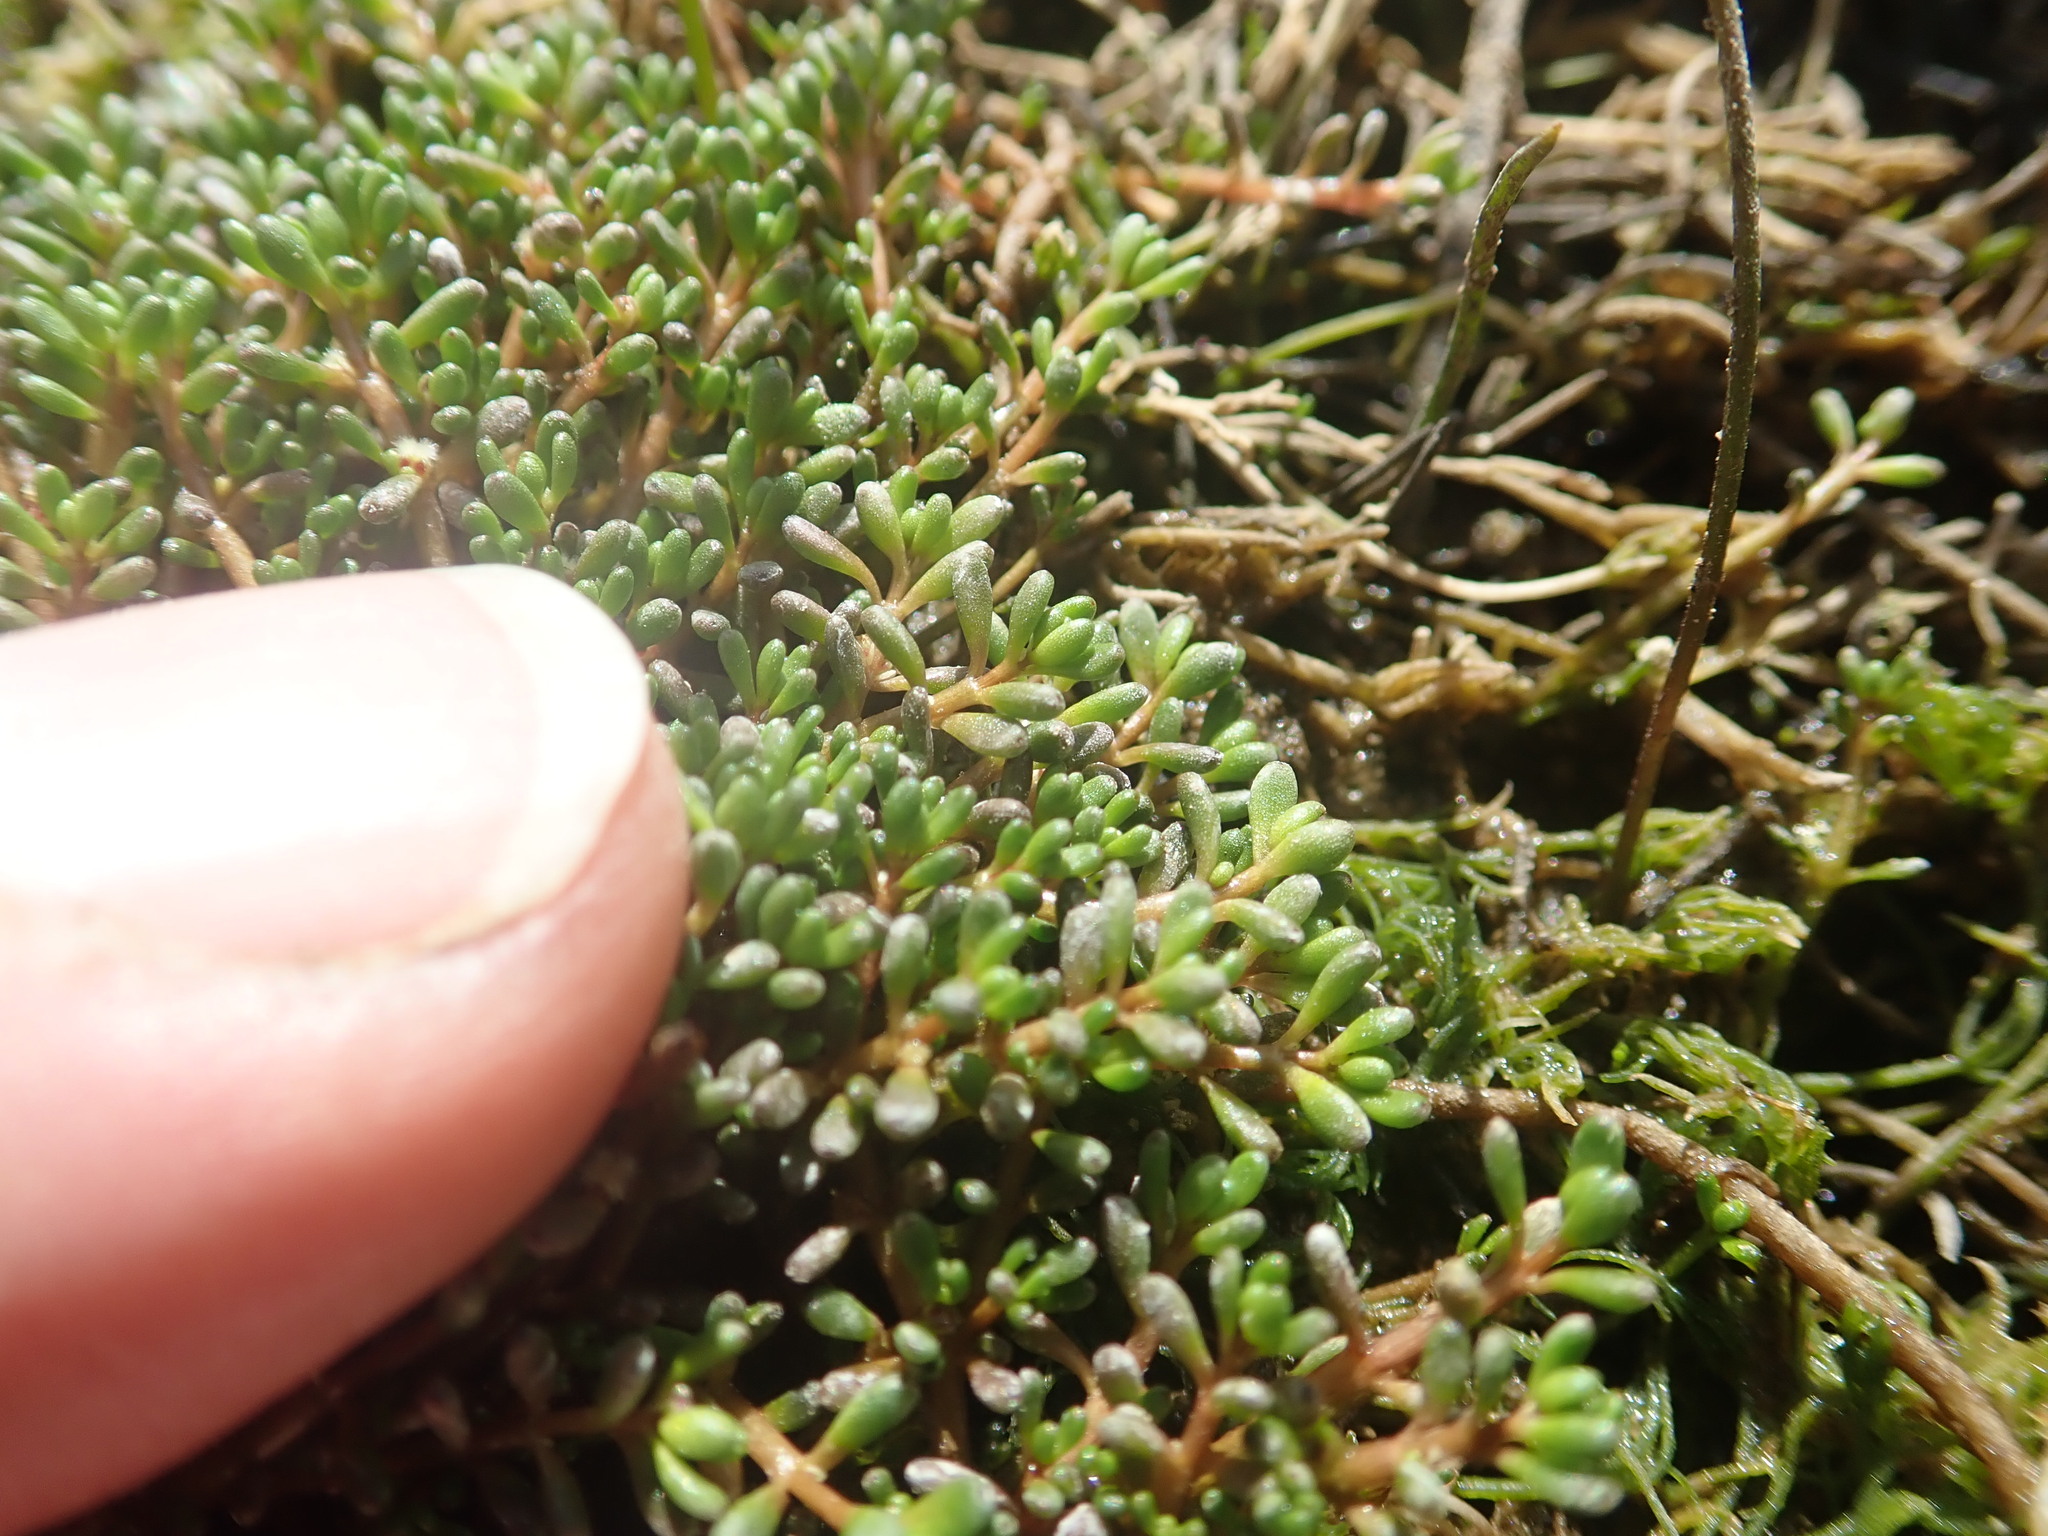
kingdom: Plantae
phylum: Tracheophyta
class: Magnoliopsida
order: Saxifragales
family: Haloragaceae
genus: Myriophyllum
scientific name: Myriophyllum votschii
